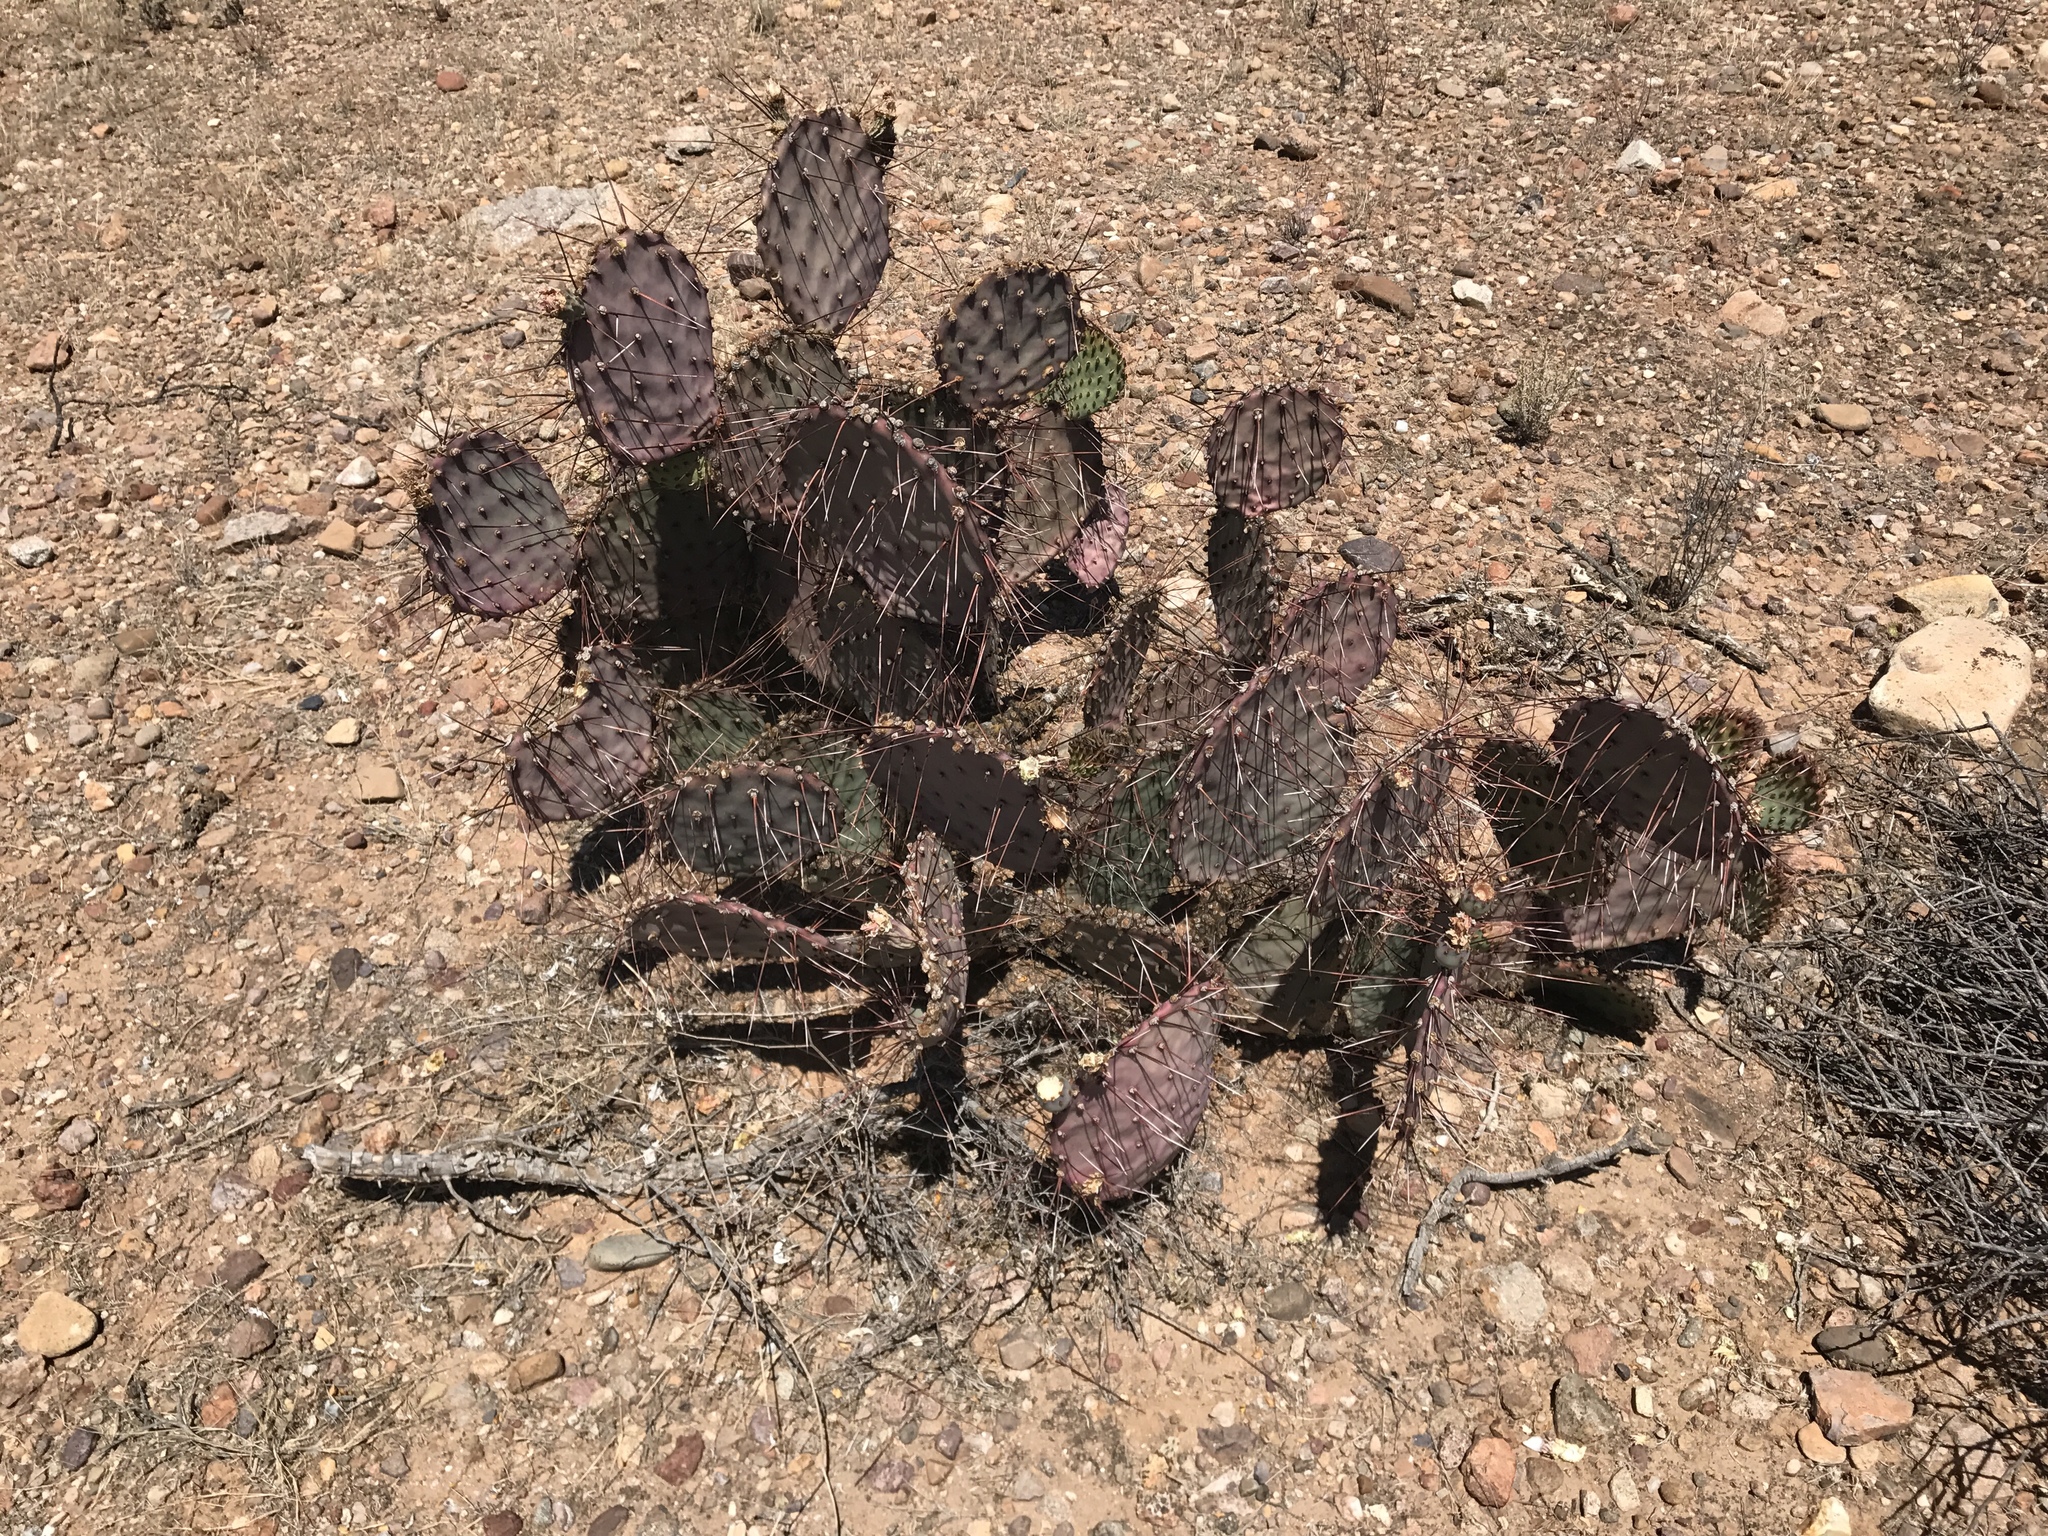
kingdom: Plantae
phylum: Tracheophyta
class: Magnoliopsida
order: Caryophyllales
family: Cactaceae
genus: Opuntia
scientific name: Opuntia macrocentra
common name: Purple prickly-pear
